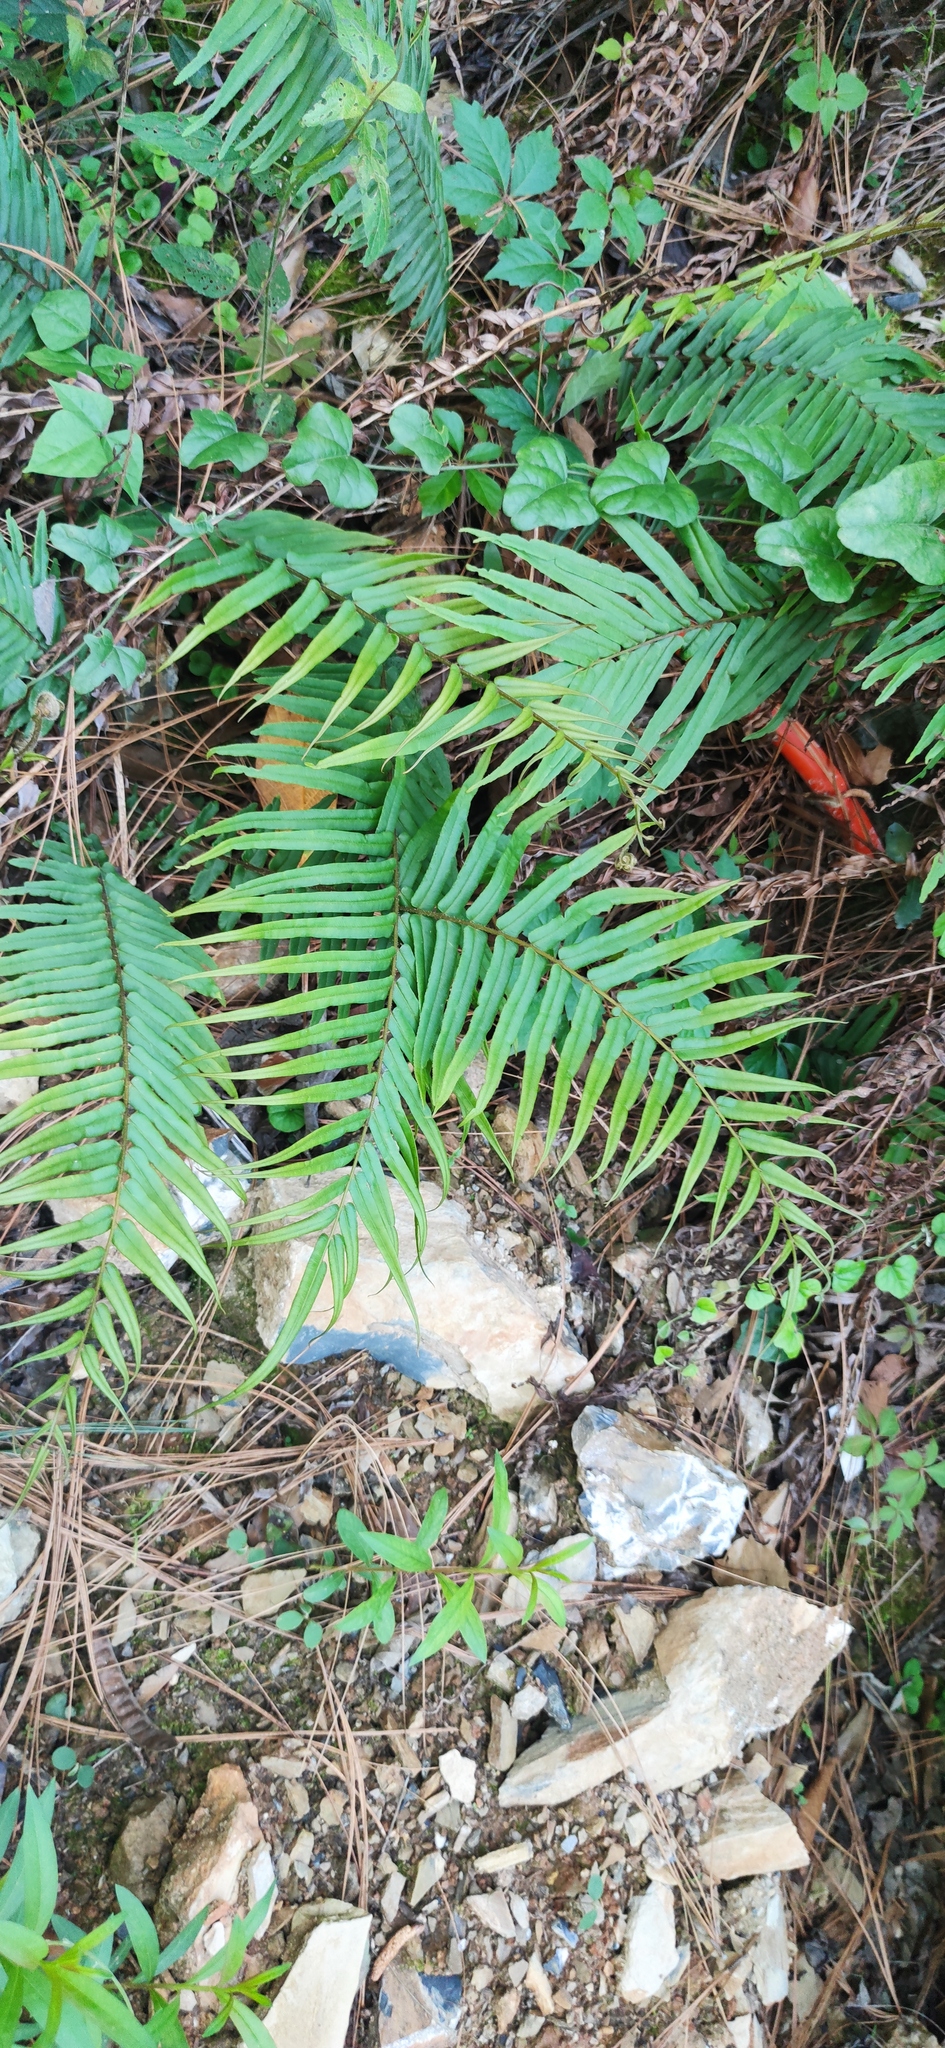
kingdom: Plantae
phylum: Tracheophyta
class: Polypodiopsida
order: Polypodiales
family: Pteridaceae
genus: Pteris
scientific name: Pteris vittata
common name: Ladder brake
